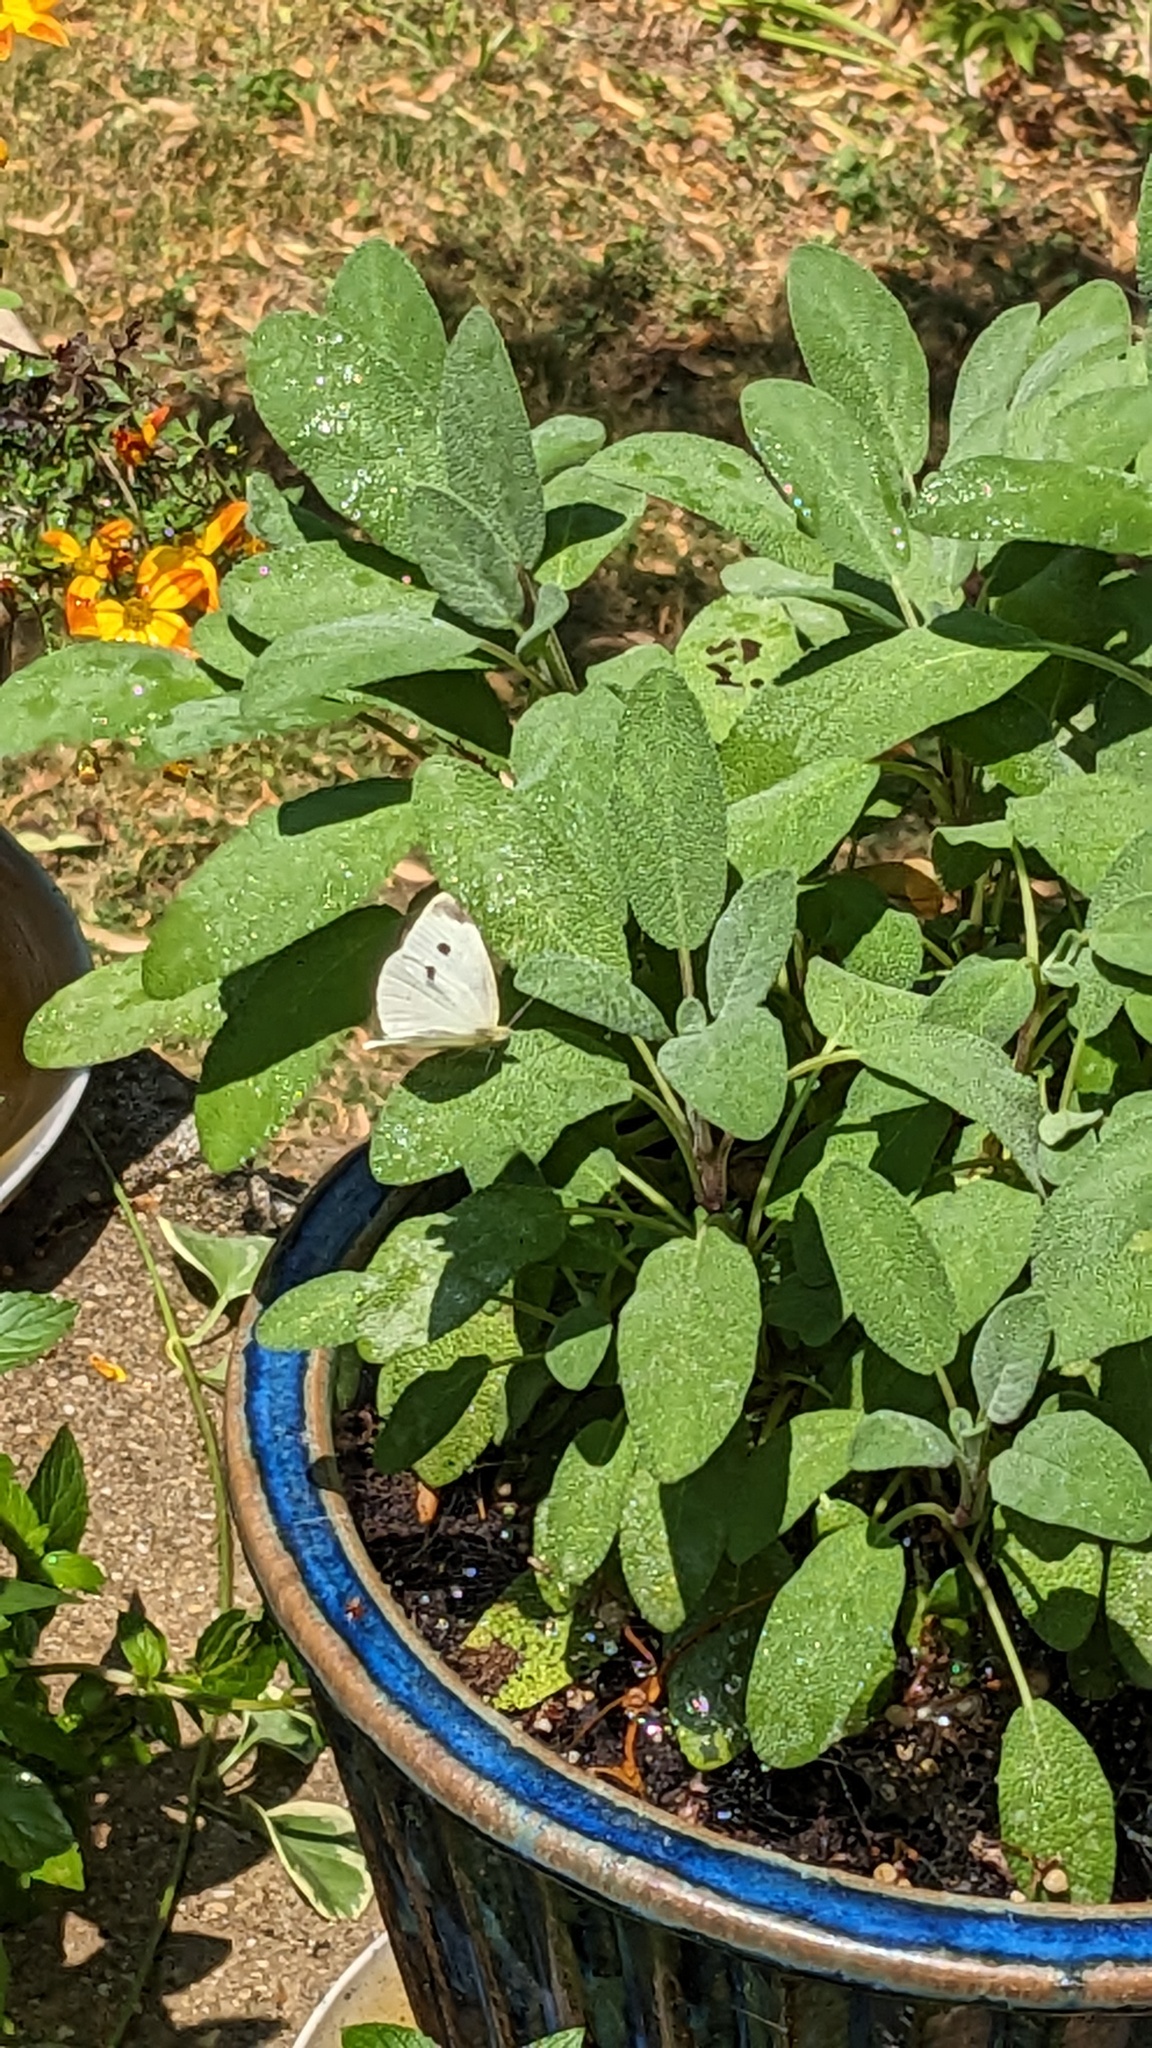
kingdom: Animalia
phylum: Arthropoda
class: Insecta
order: Lepidoptera
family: Pieridae
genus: Pieris
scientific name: Pieris rapae
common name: Small white
